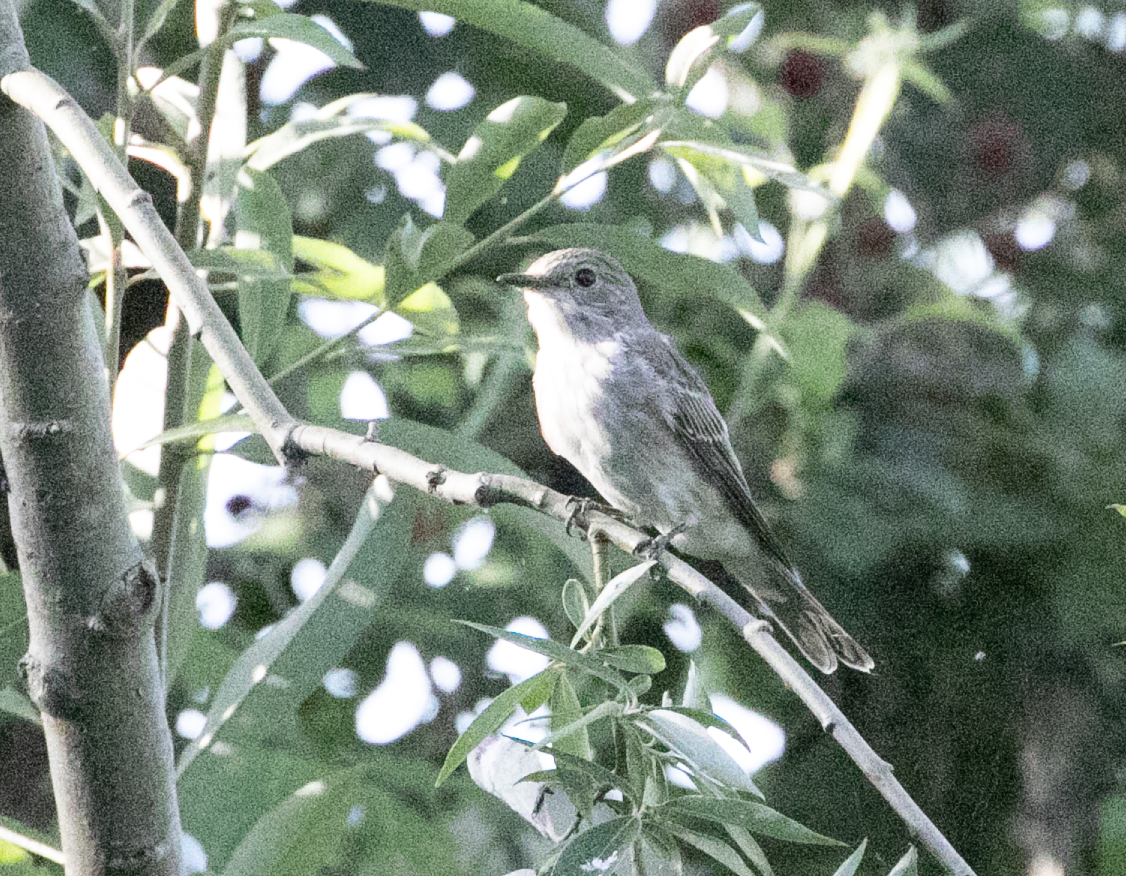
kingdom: Animalia
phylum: Chordata
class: Aves
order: Passeriformes
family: Muscicapidae
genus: Muscicapa
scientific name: Muscicapa striata
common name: Spotted flycatcher
